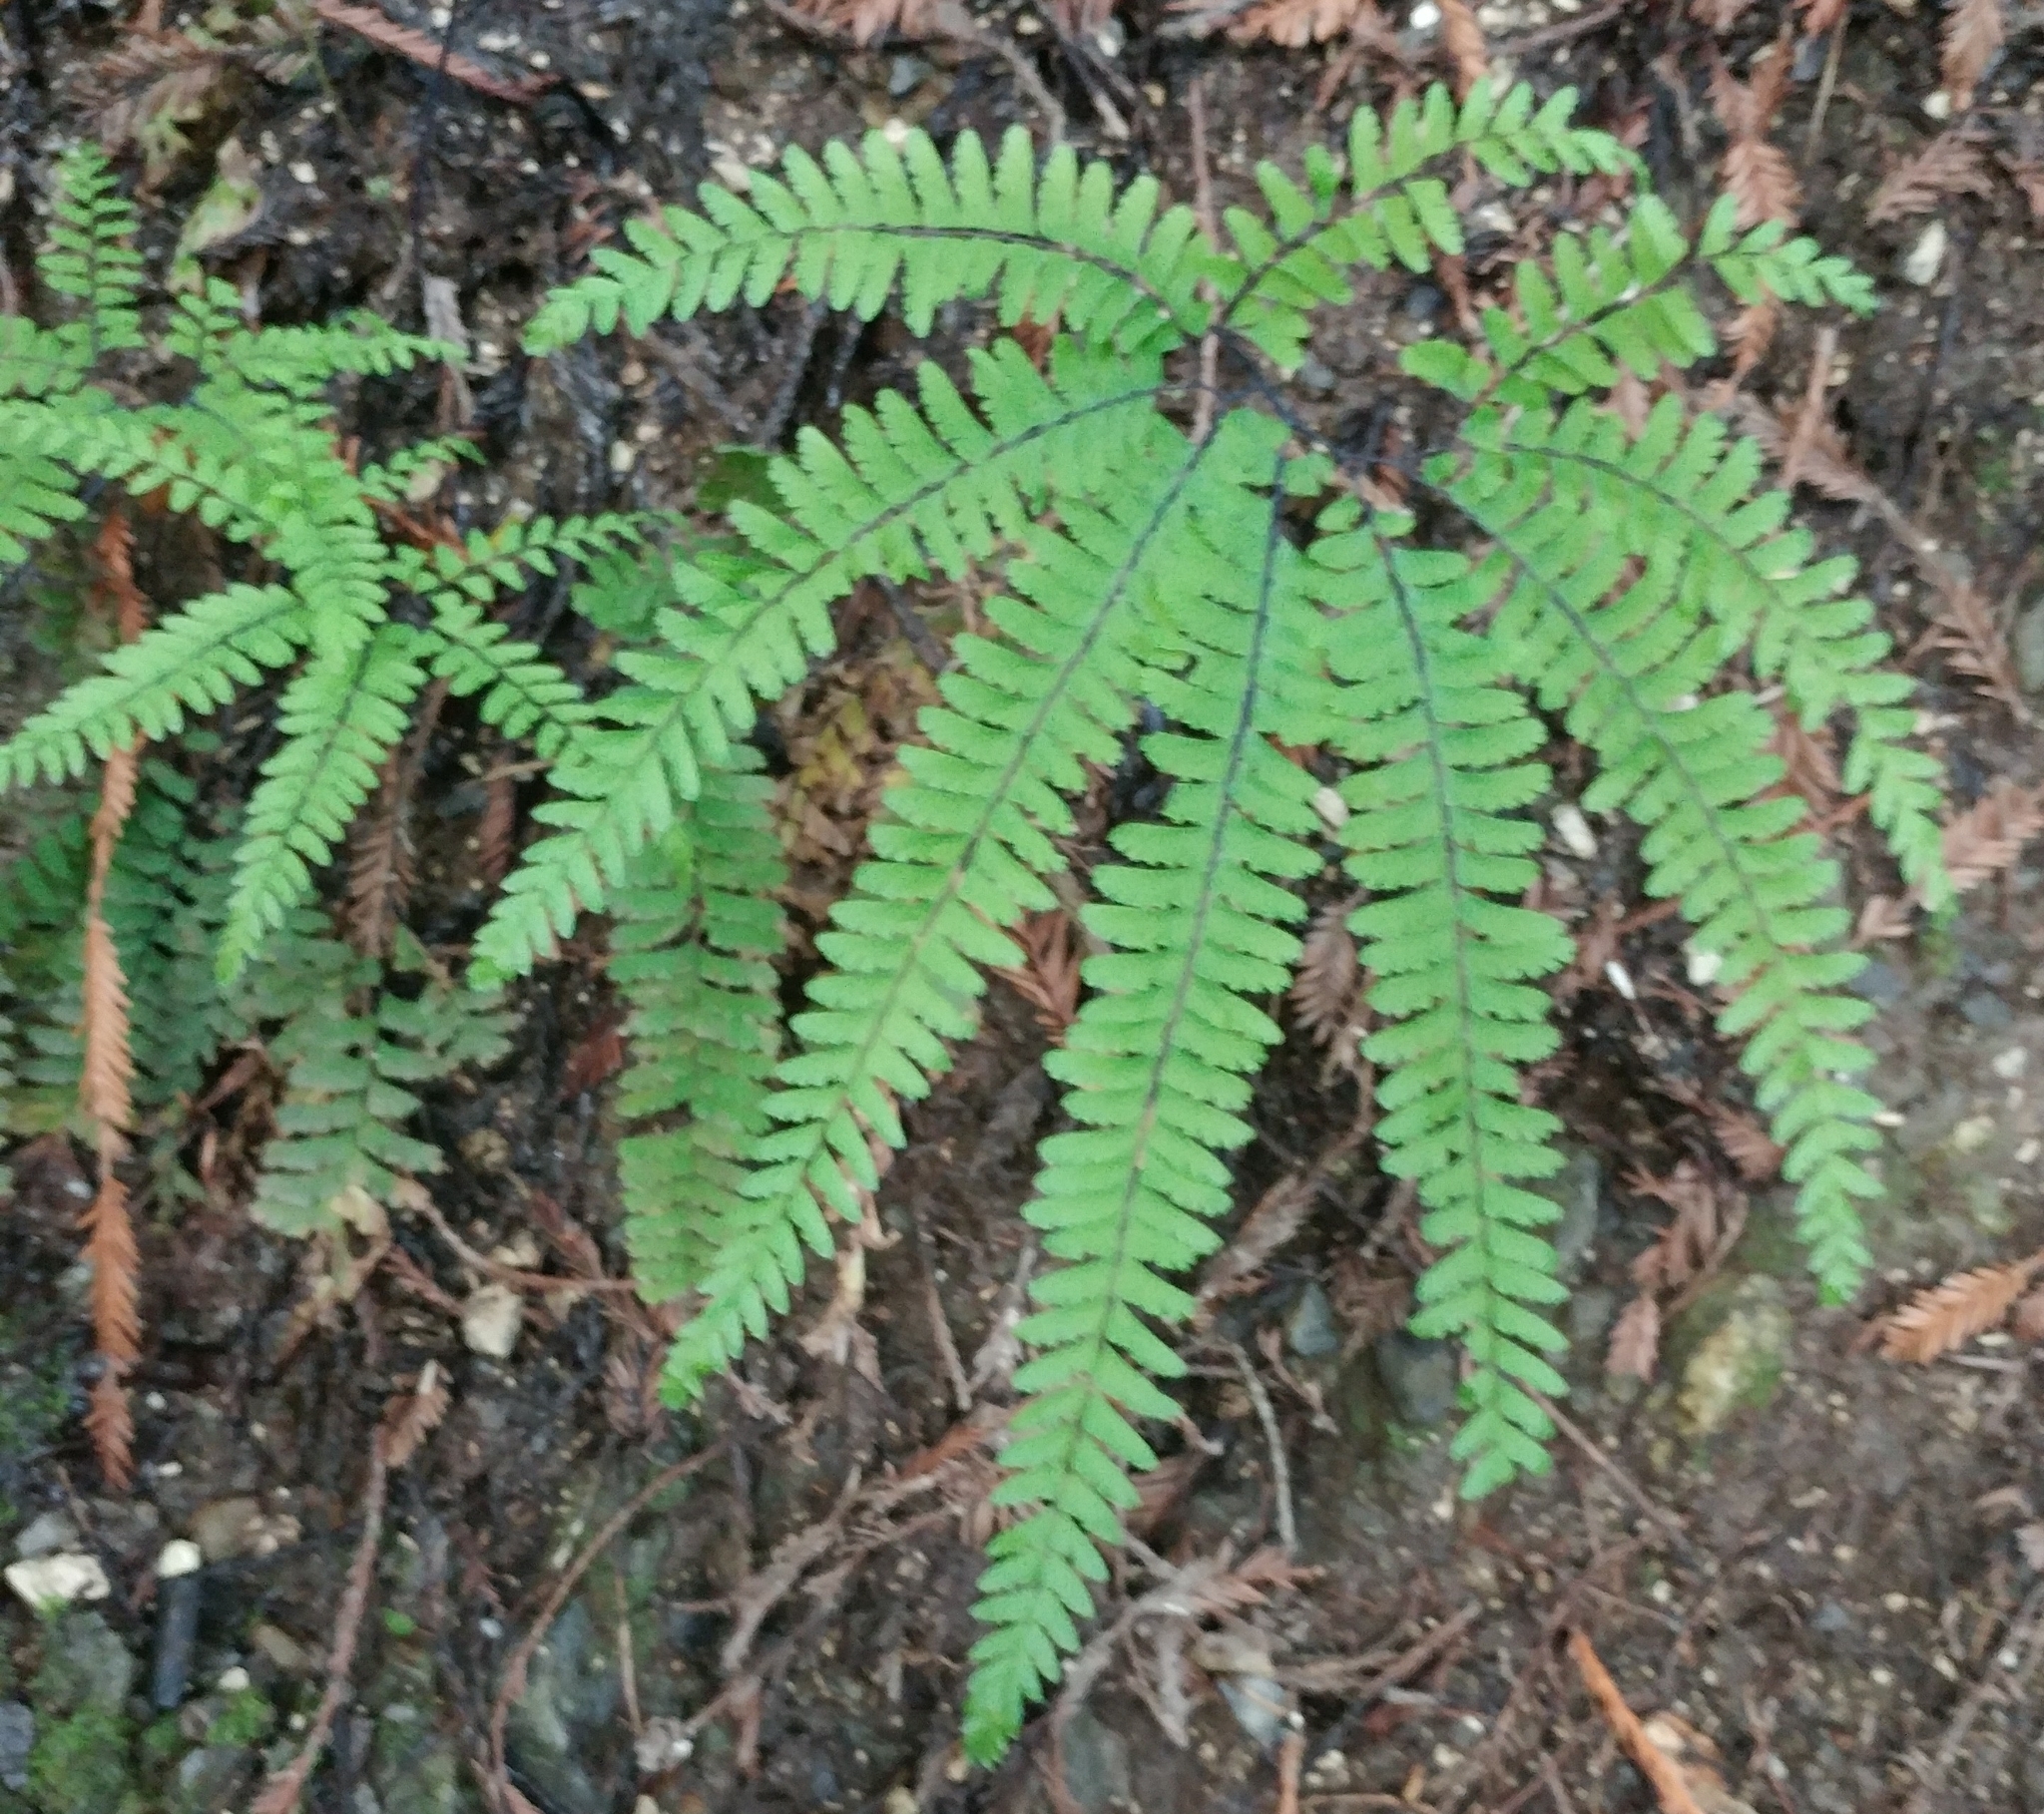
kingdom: Plantae
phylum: Tracheophyta
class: Polypodiopsida
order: Polypodiales
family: Pteridaceae
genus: Adiantum
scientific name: Adiantum aleuticum
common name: Aleutian maidenhair fern
